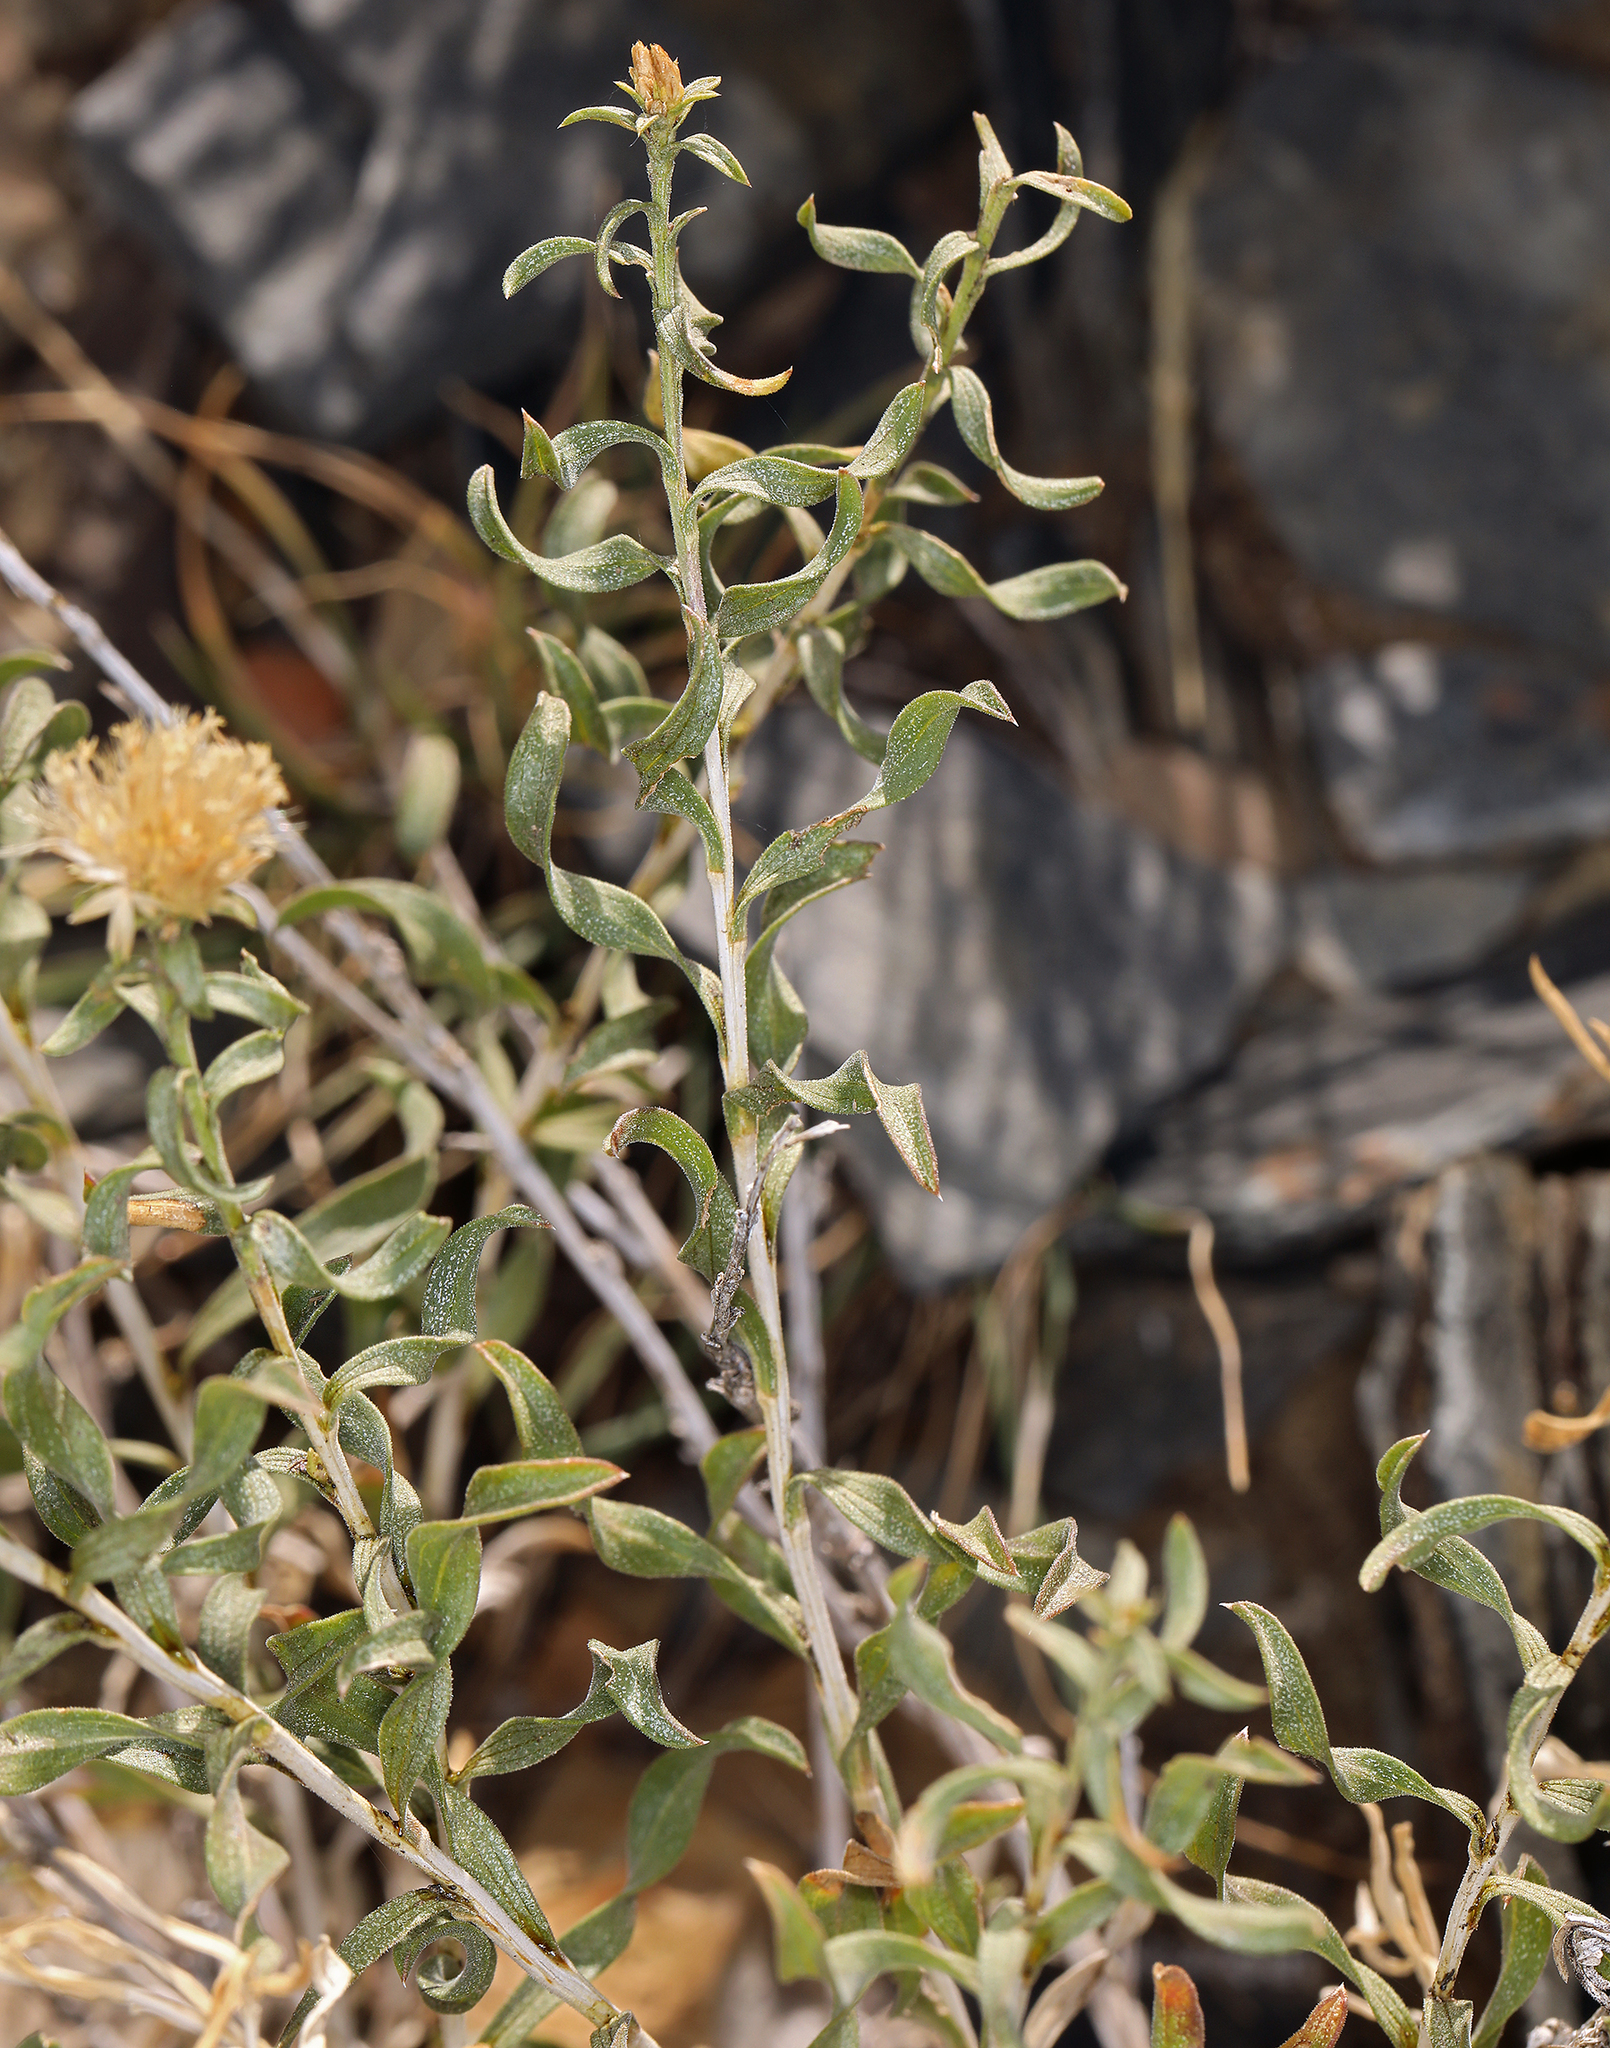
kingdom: Plantae
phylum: Tracheophyta
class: Magnoliopsida
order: Asterales
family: Asteraceae
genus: Chrysothamnus
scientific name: Chrysothamnus viscidiflorus
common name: Yellow rabbitbrush
